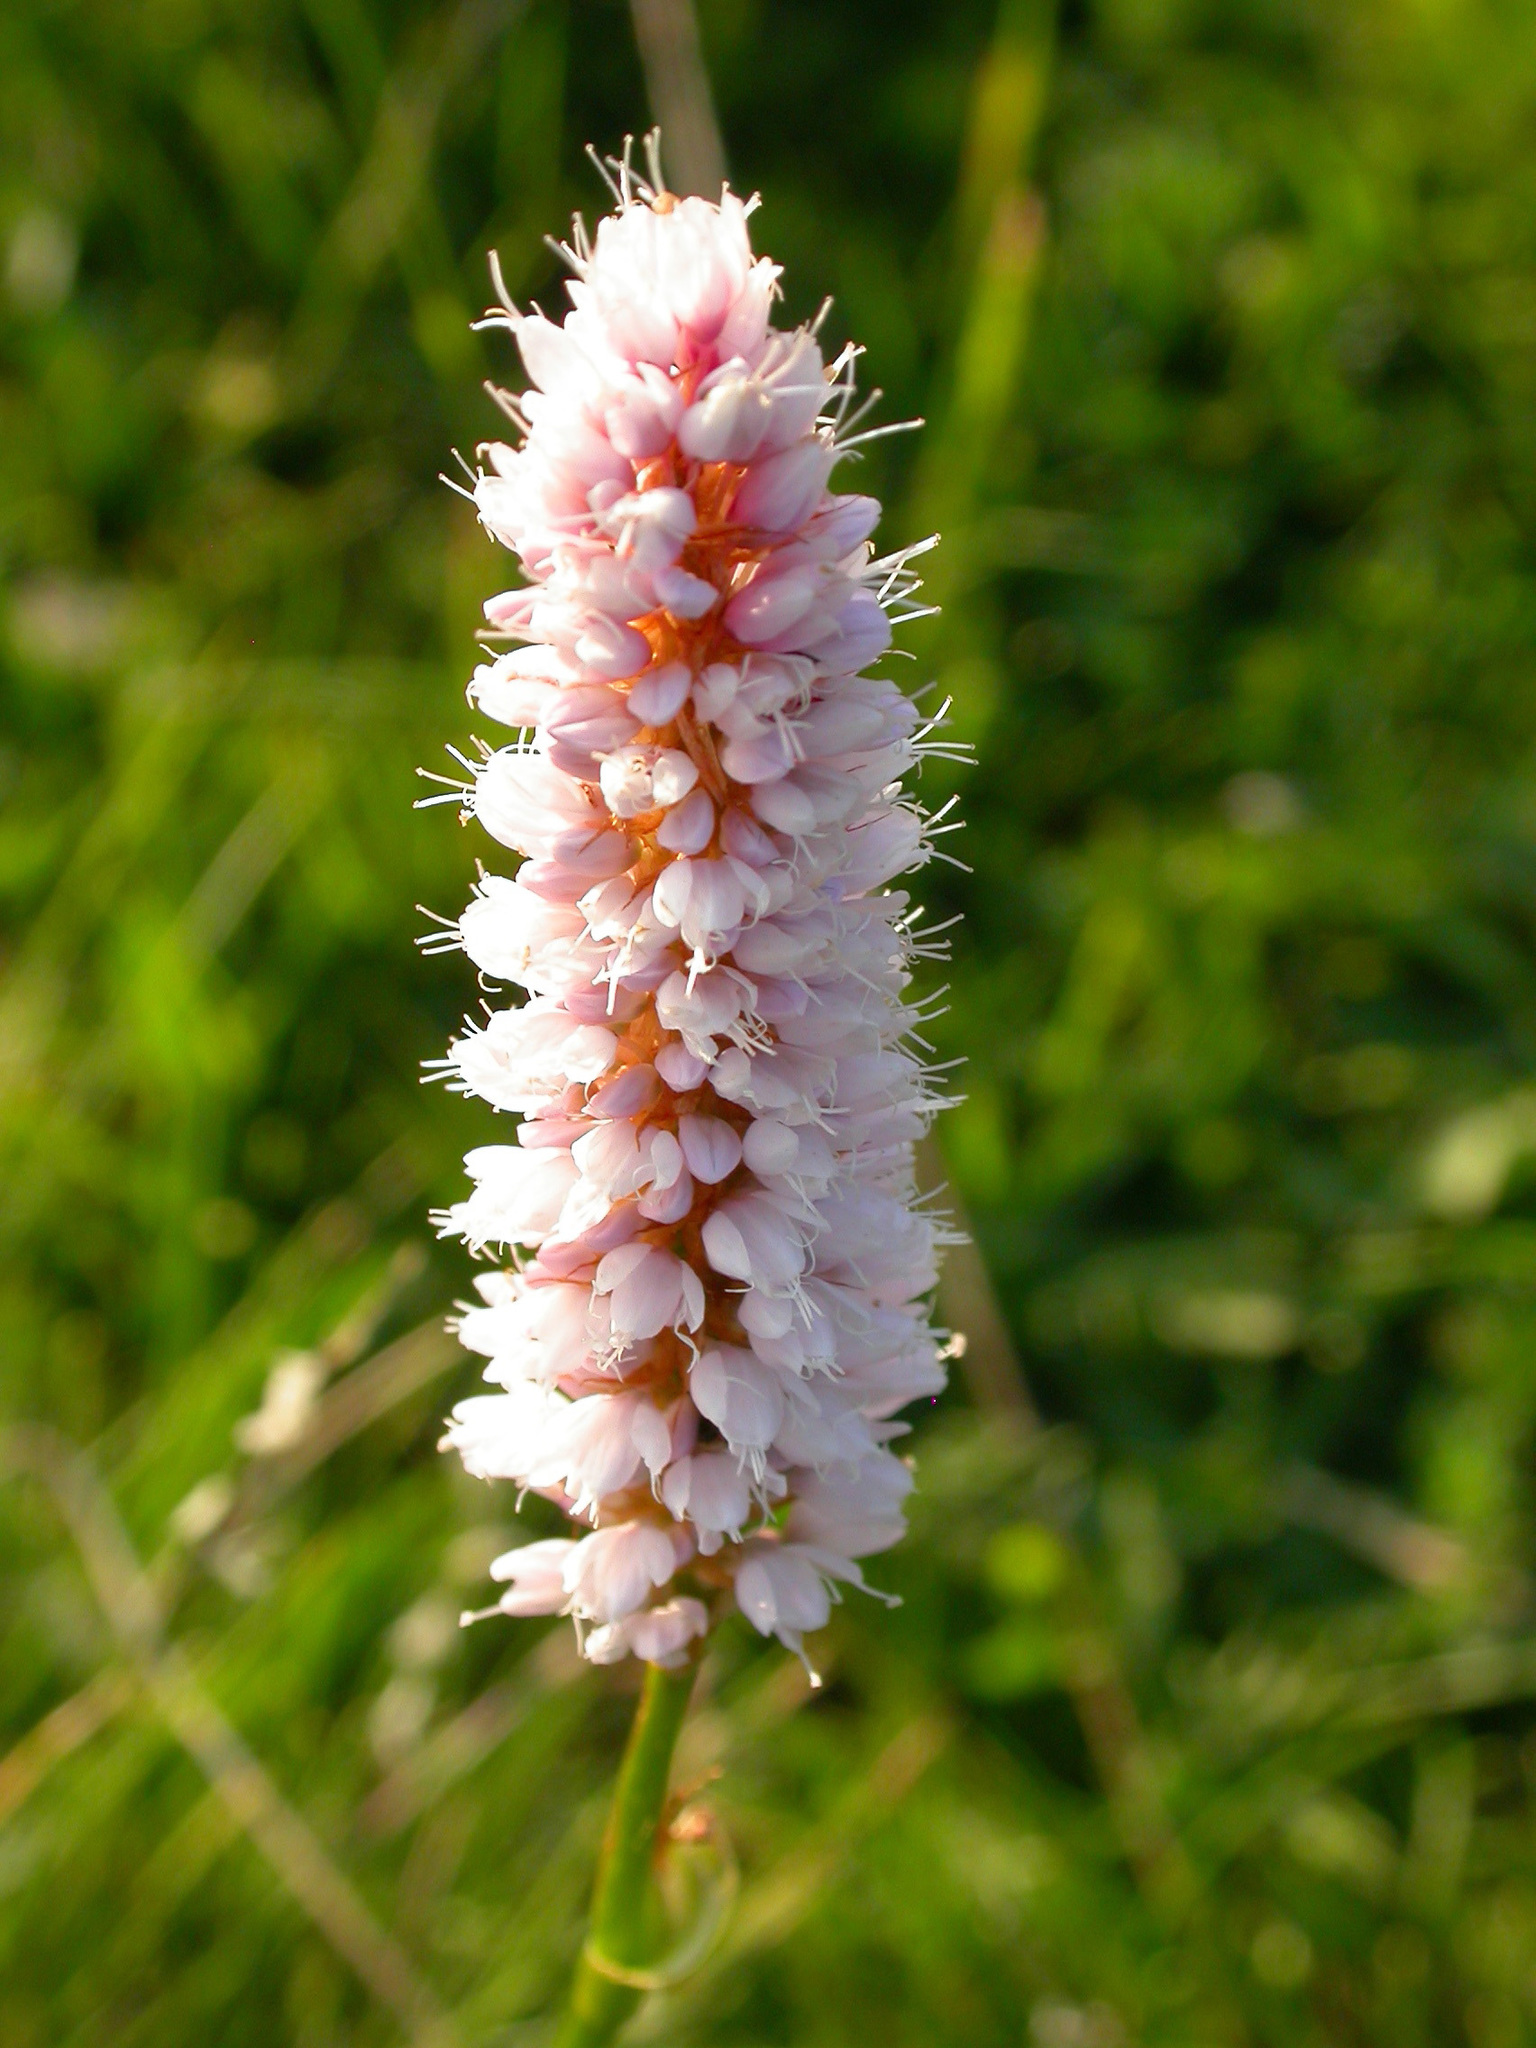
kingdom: Plantae
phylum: Tracheophyta
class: Magnoliopsida
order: Caryophyllales
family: Polygonaceae
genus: Bistorta
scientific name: Bistorta officinalis
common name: Common bistort
